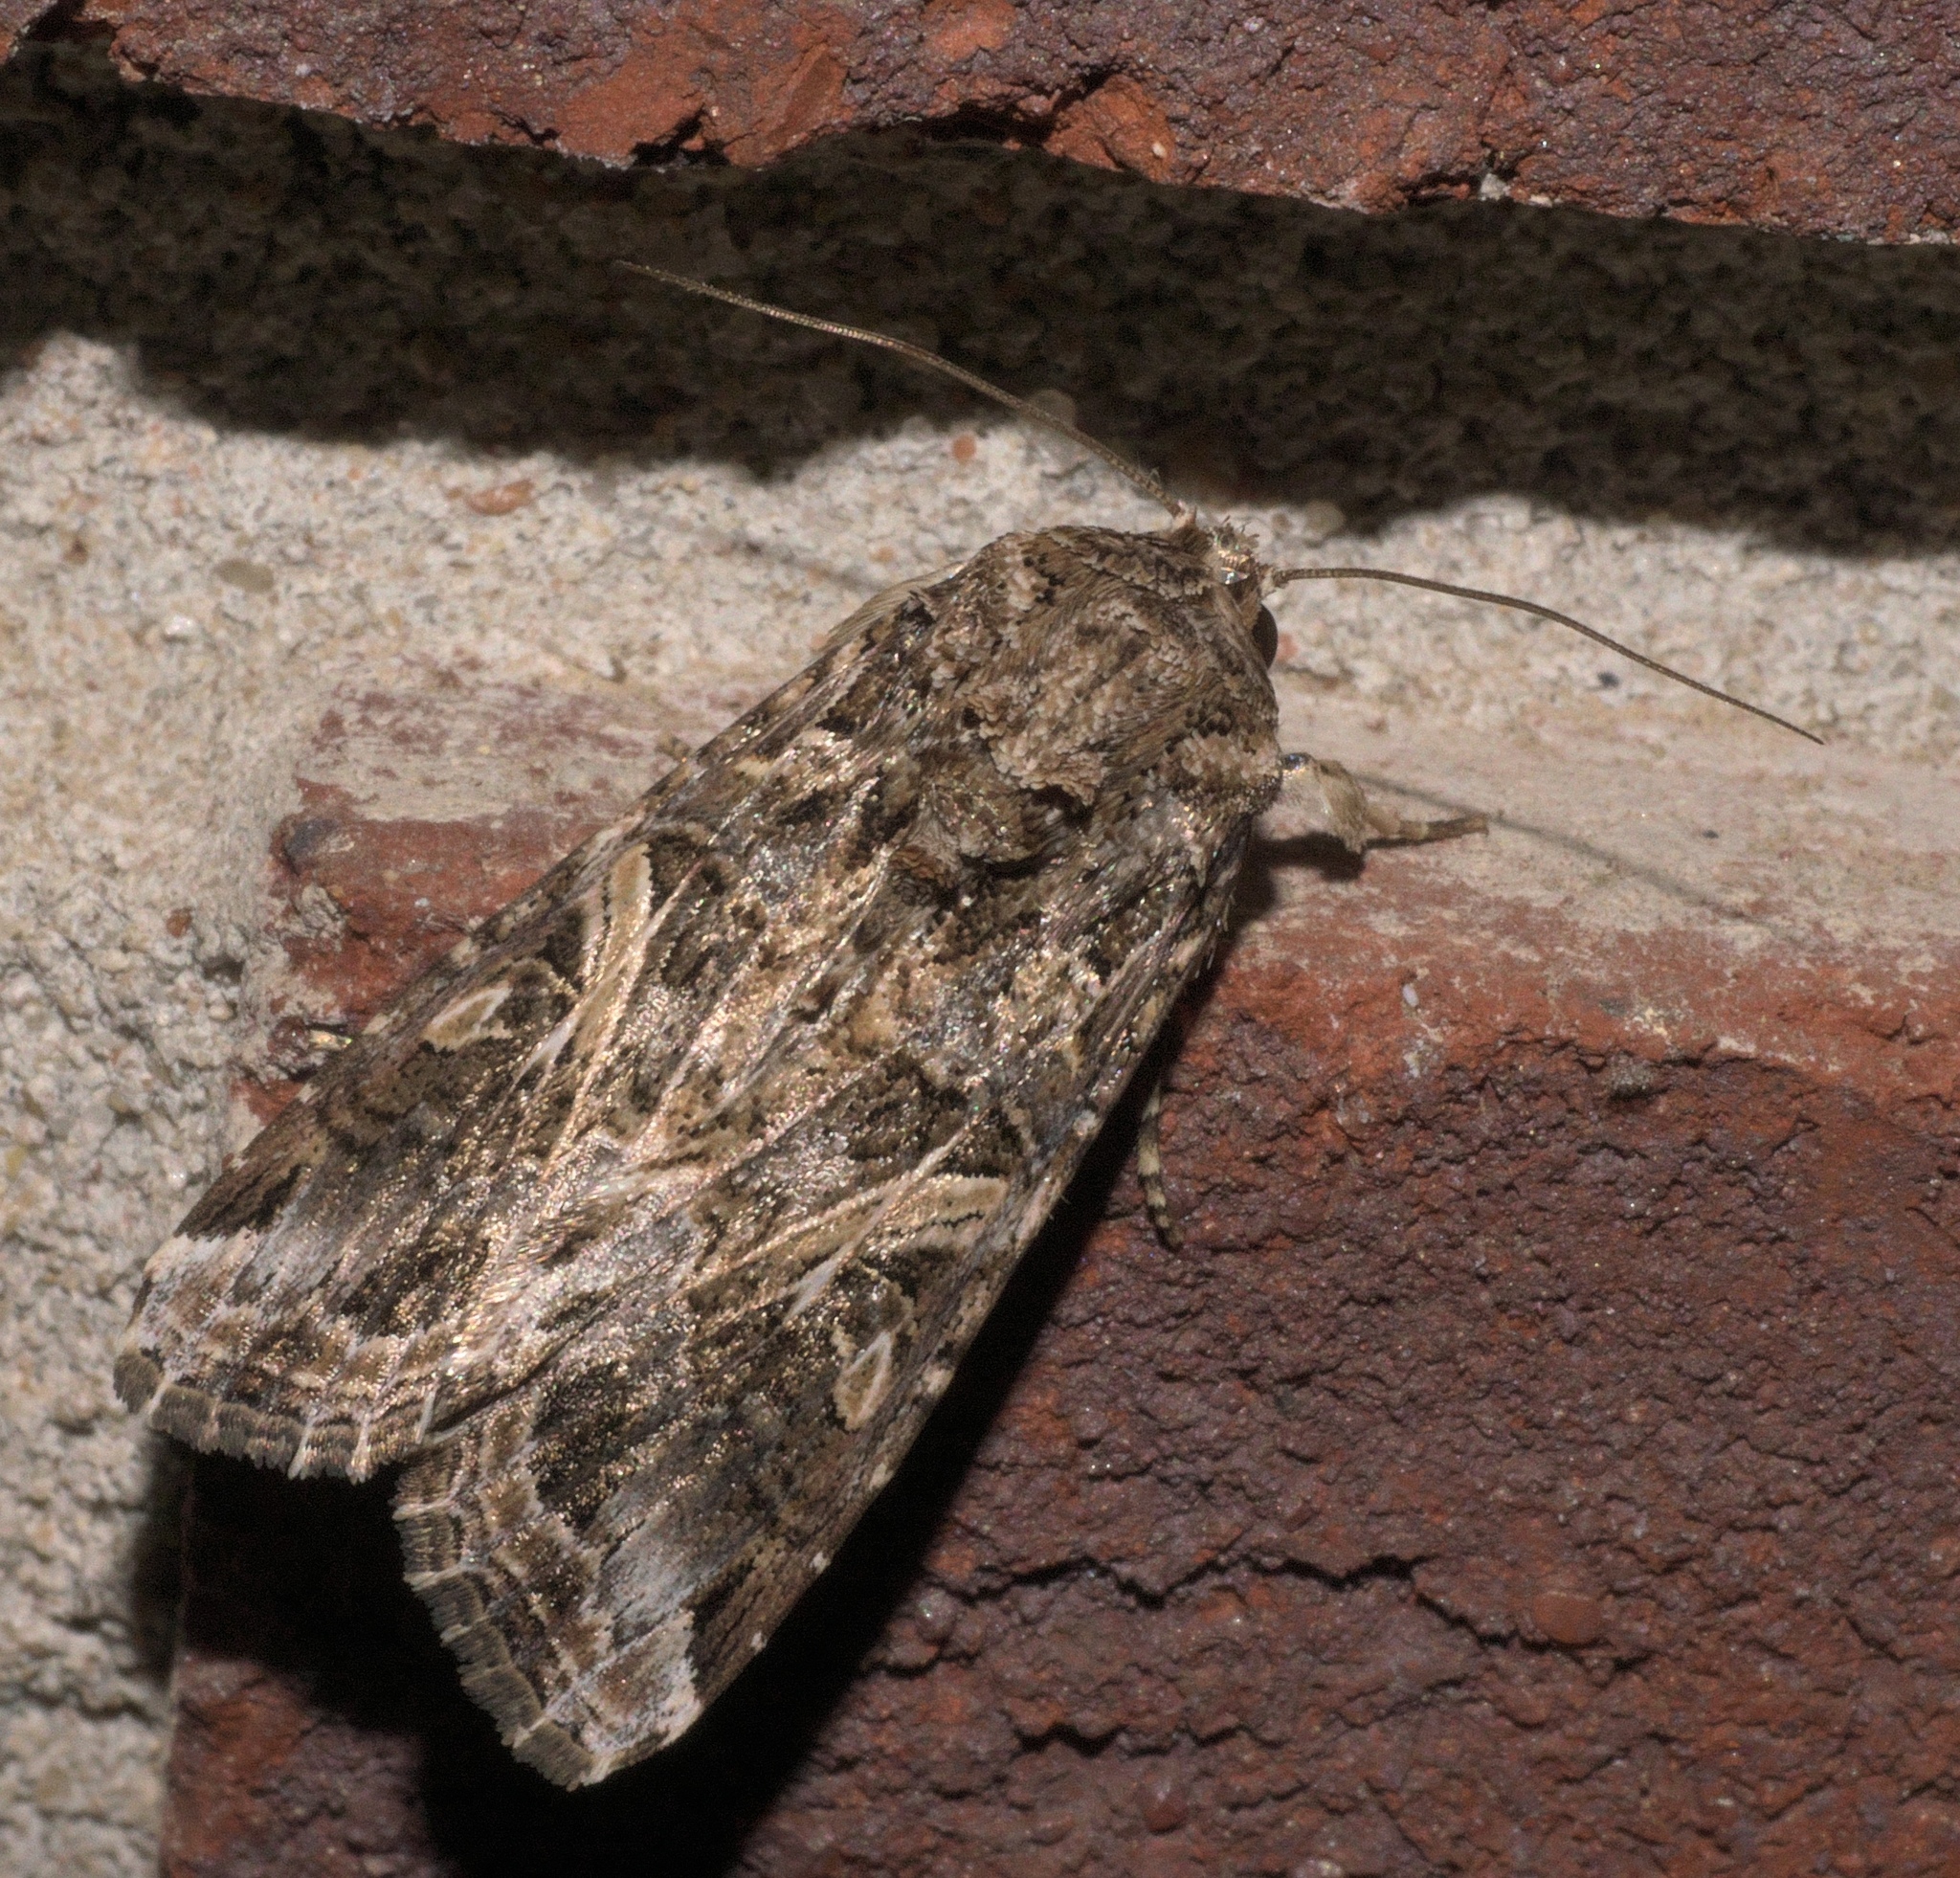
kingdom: Animalia
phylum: Arthropoda
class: Insecta
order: Lepidoptera
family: Noctuidae
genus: Spodoptera
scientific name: Spodoptera ornithogalli
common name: Yellow-striped armyworm
